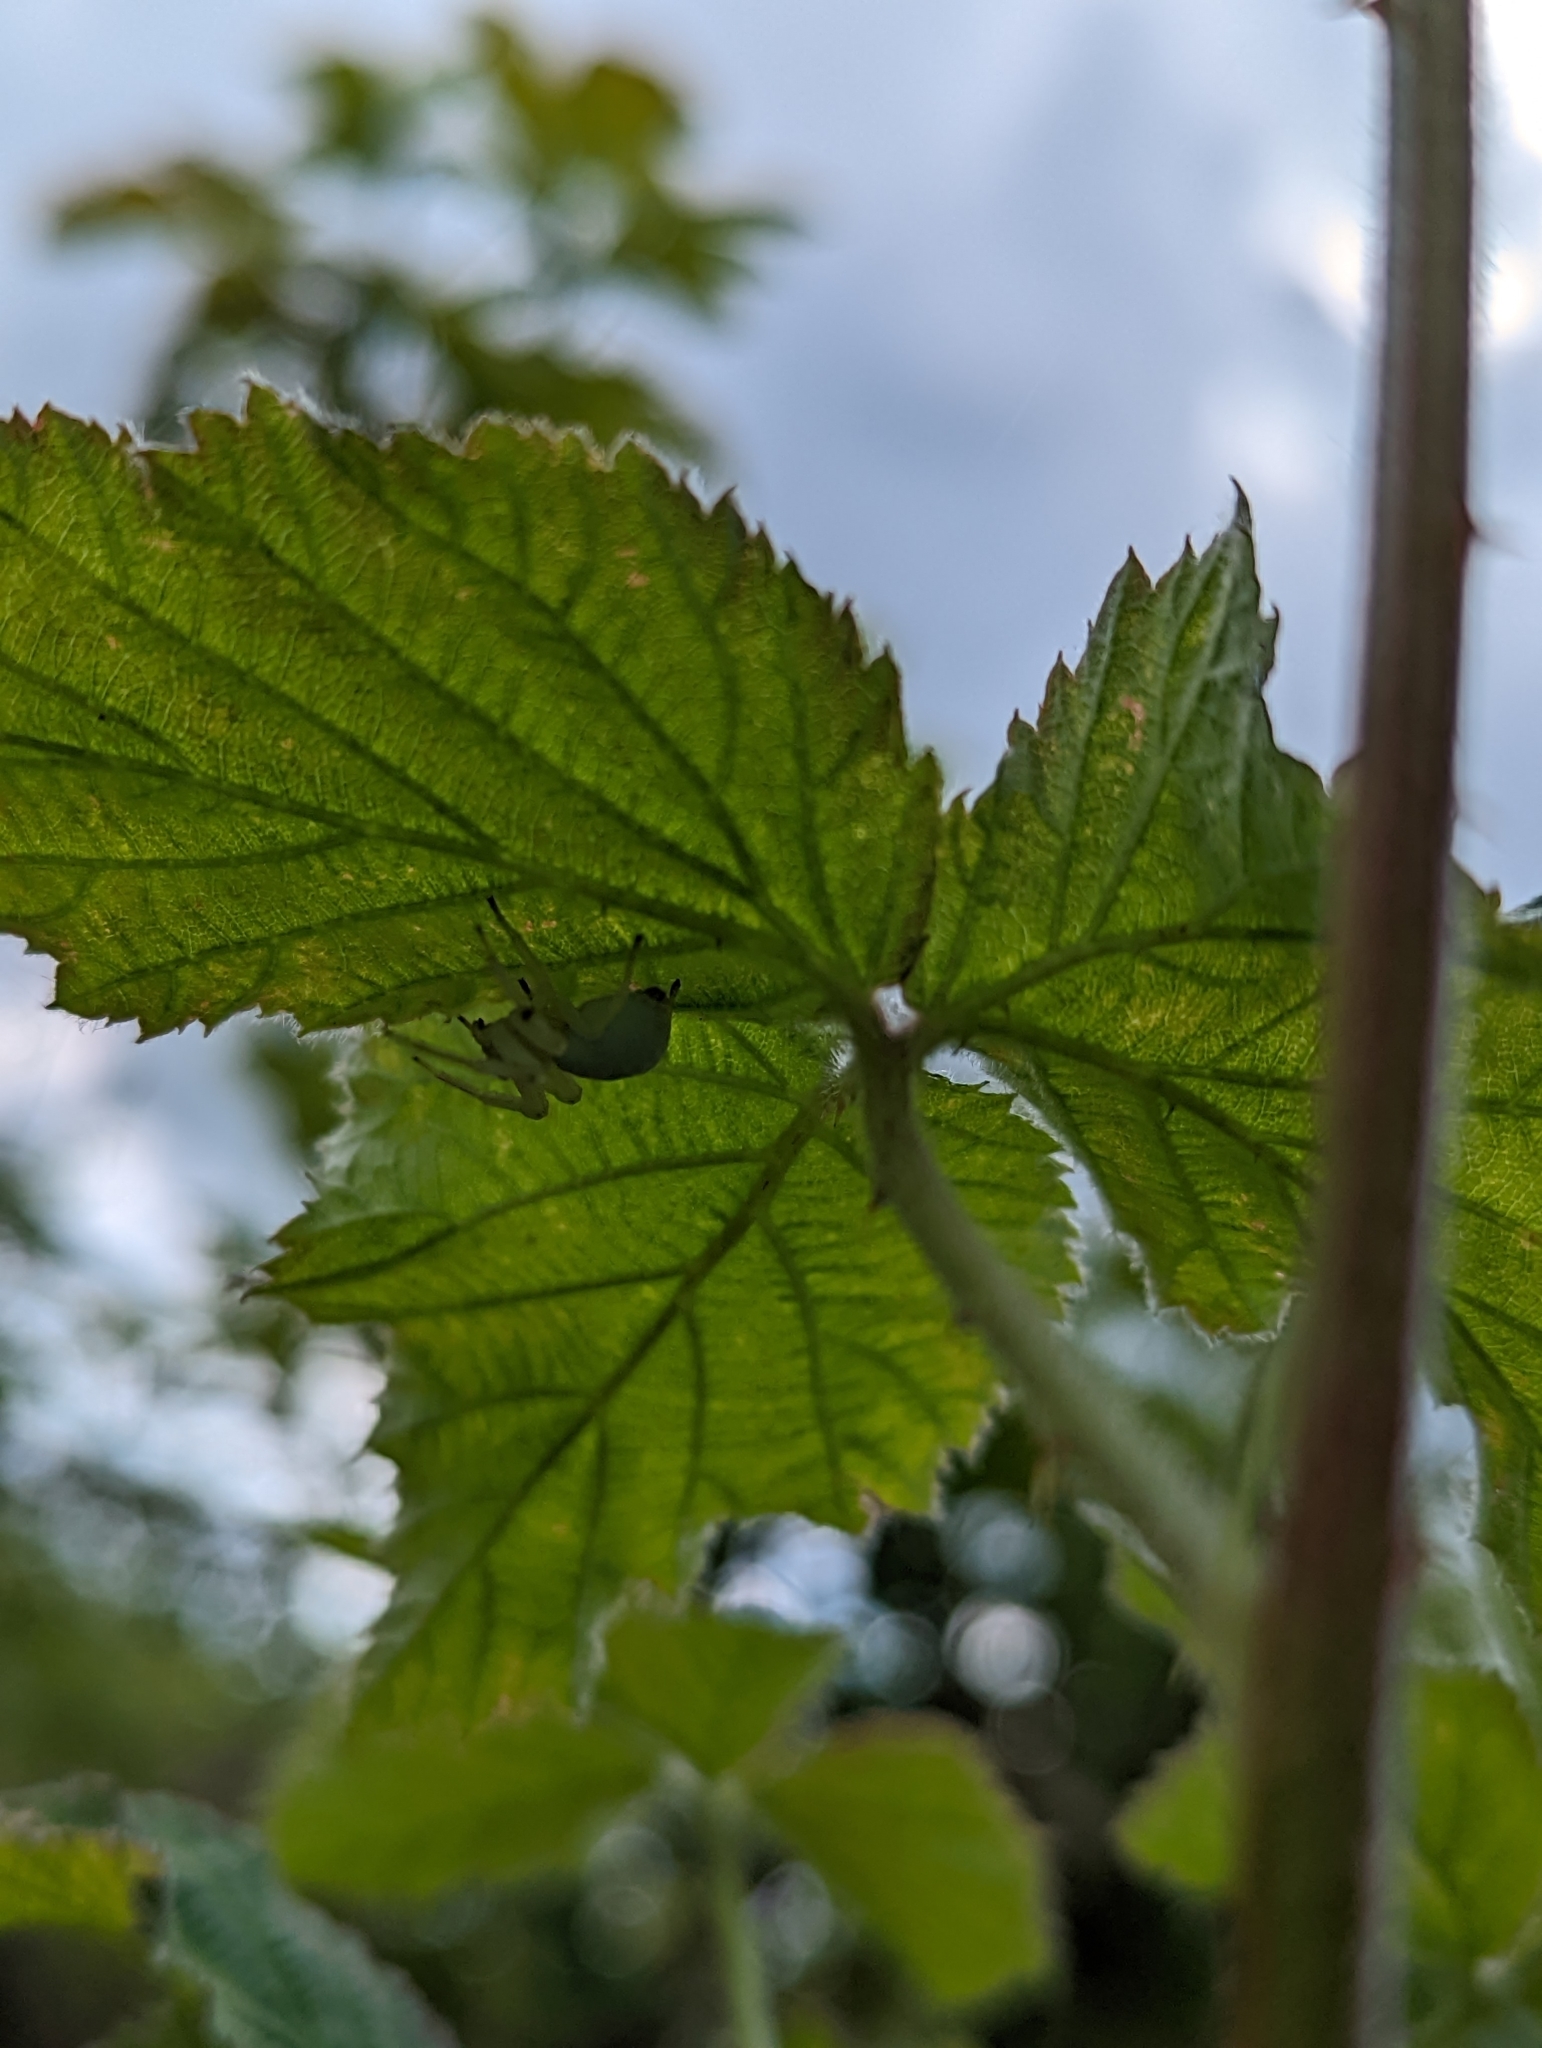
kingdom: Animalia
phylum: Arthropoda
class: Arachnida
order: Araneae
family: Thomisidae
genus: Misumena
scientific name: Misumena vatia
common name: Goldenrod crab spider
